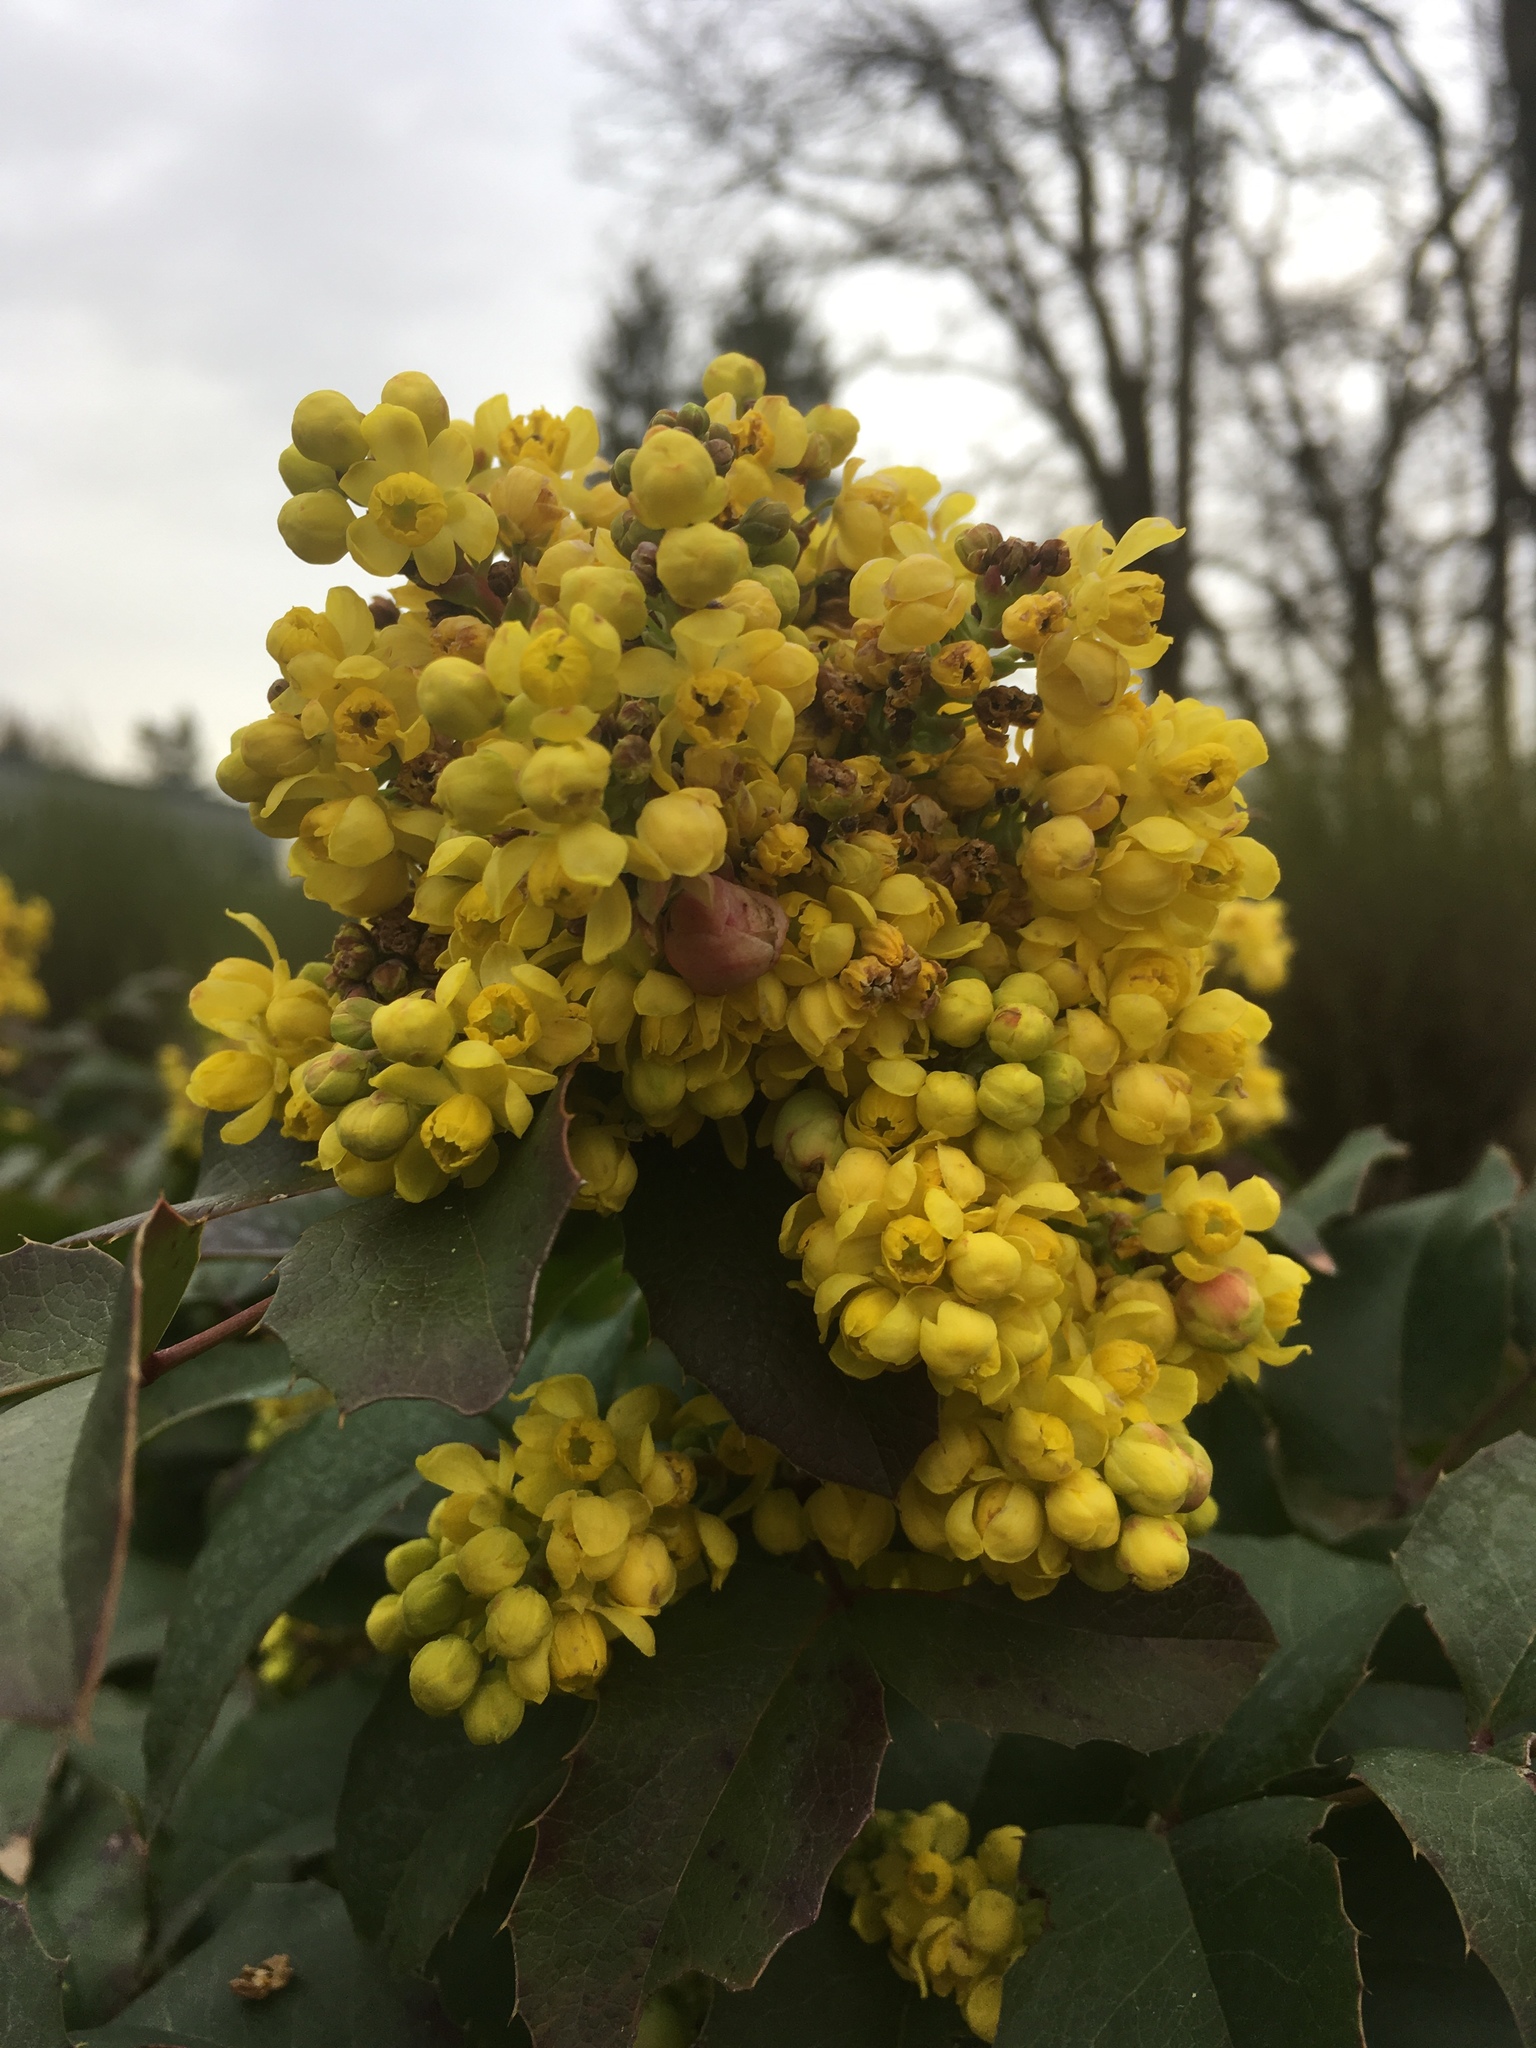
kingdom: Plantae
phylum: Tracheophyta
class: Magnoliopsida
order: Ranunculales
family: Berberidaceae
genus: Mahonia
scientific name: Mahonia aquifolium
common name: Oregon-grape
